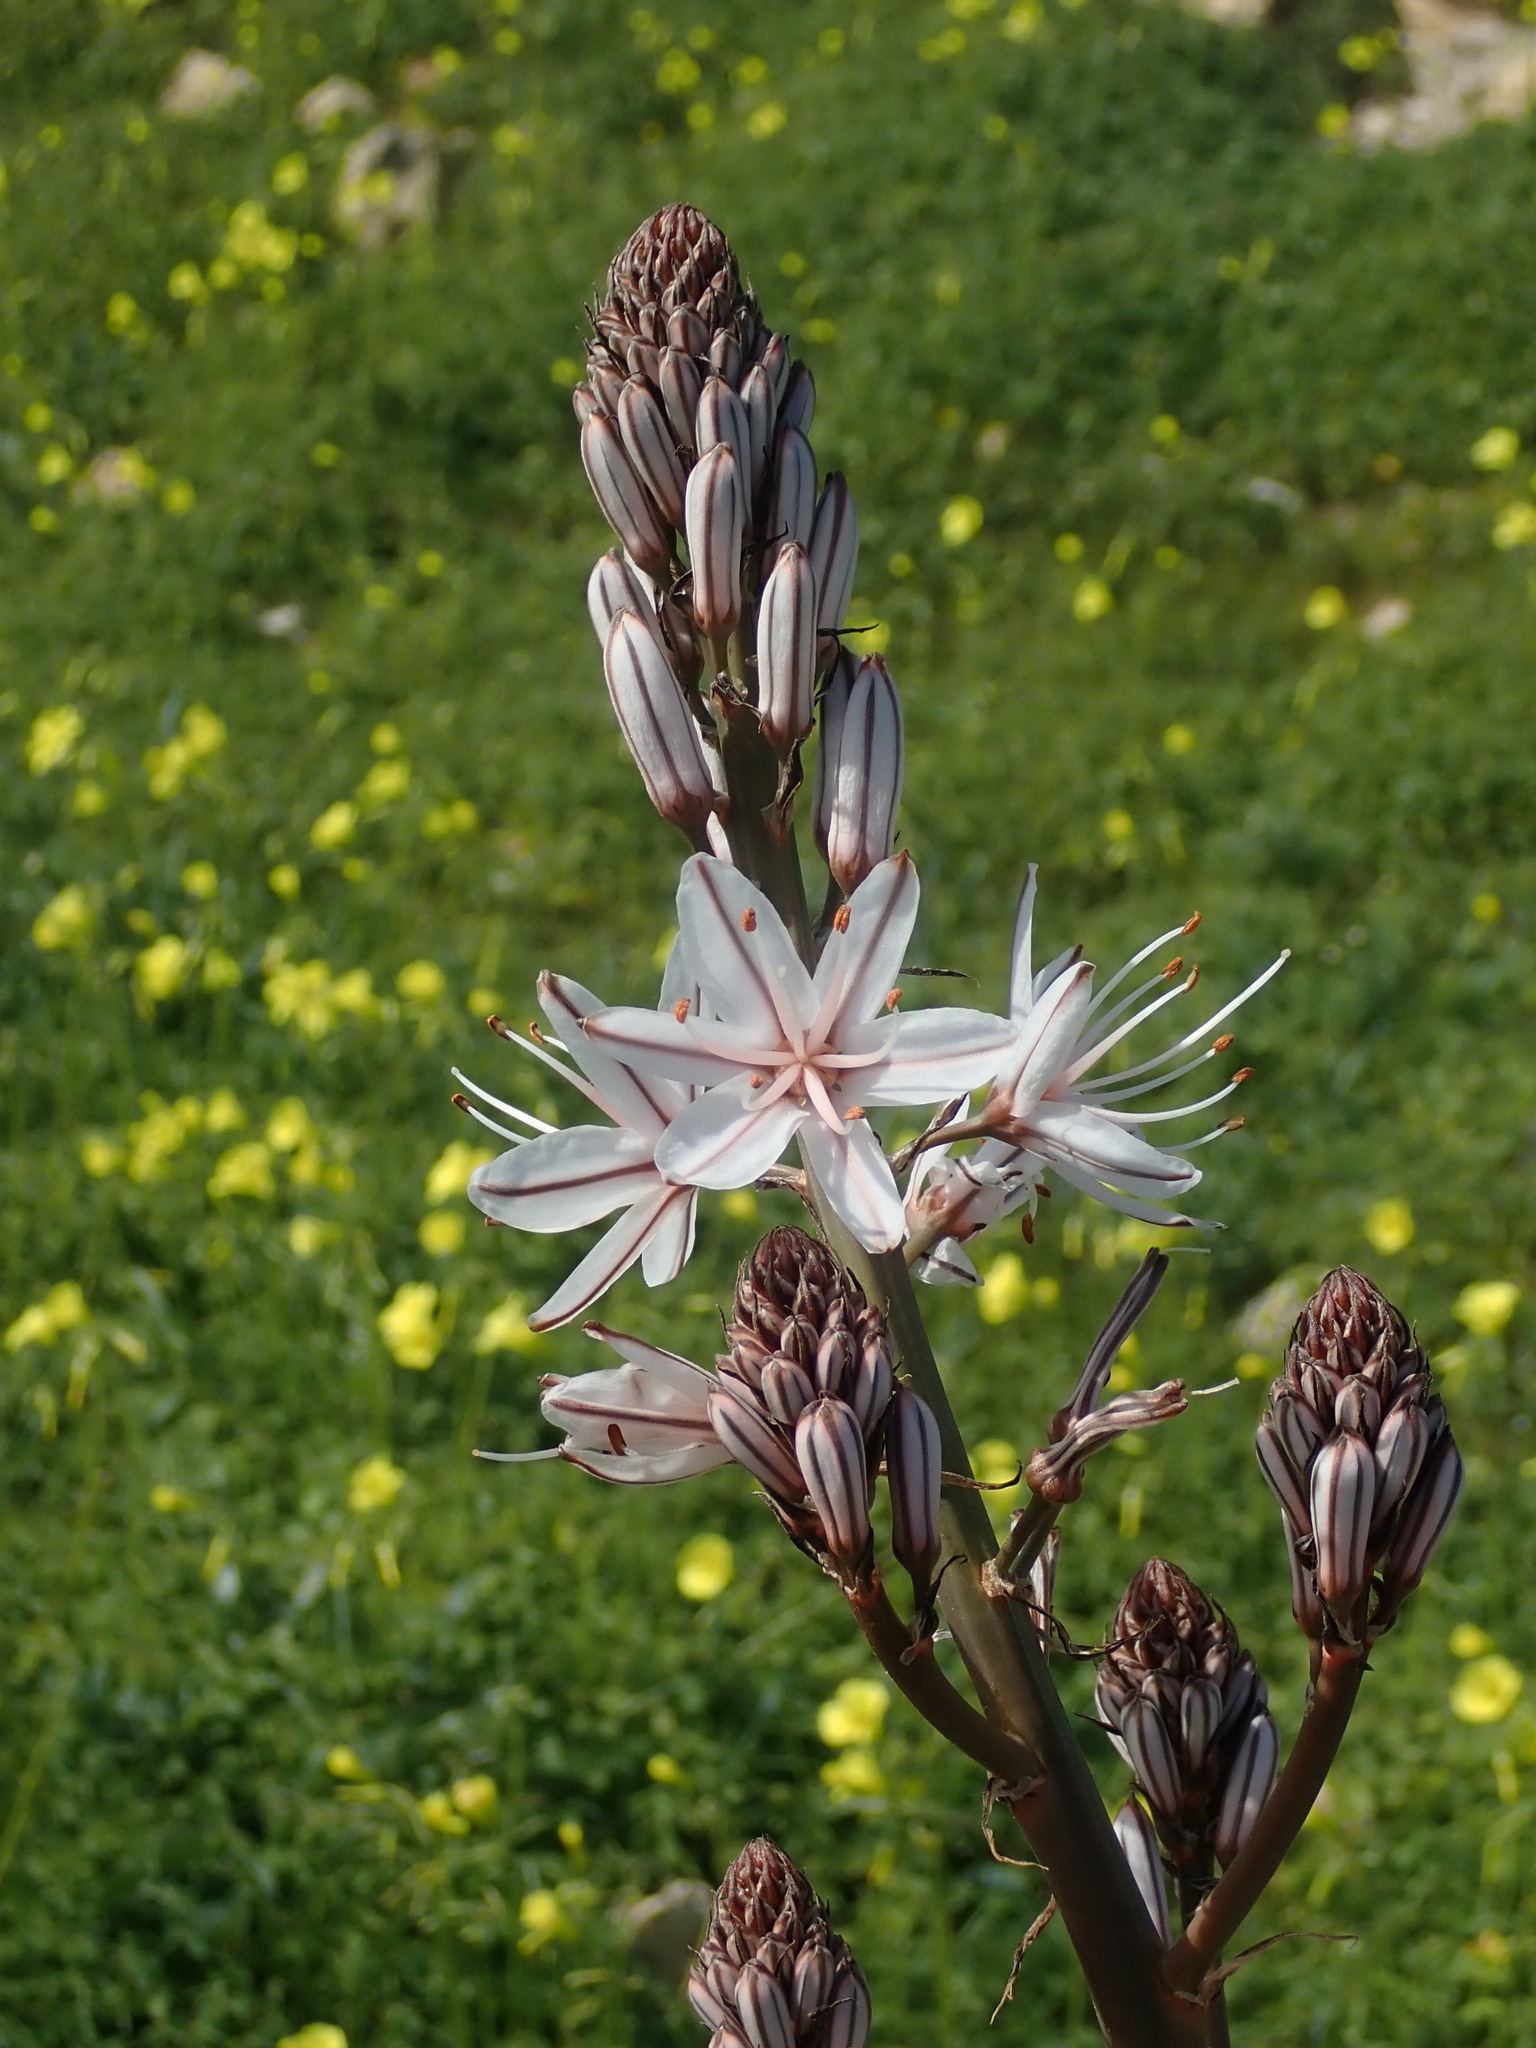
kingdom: Plantae
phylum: Tracheophyta
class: Liliopsida
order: Asparagales
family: Asphodelaceae
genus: Asphodelus
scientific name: Asphodelus ramosus
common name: Silverrod
